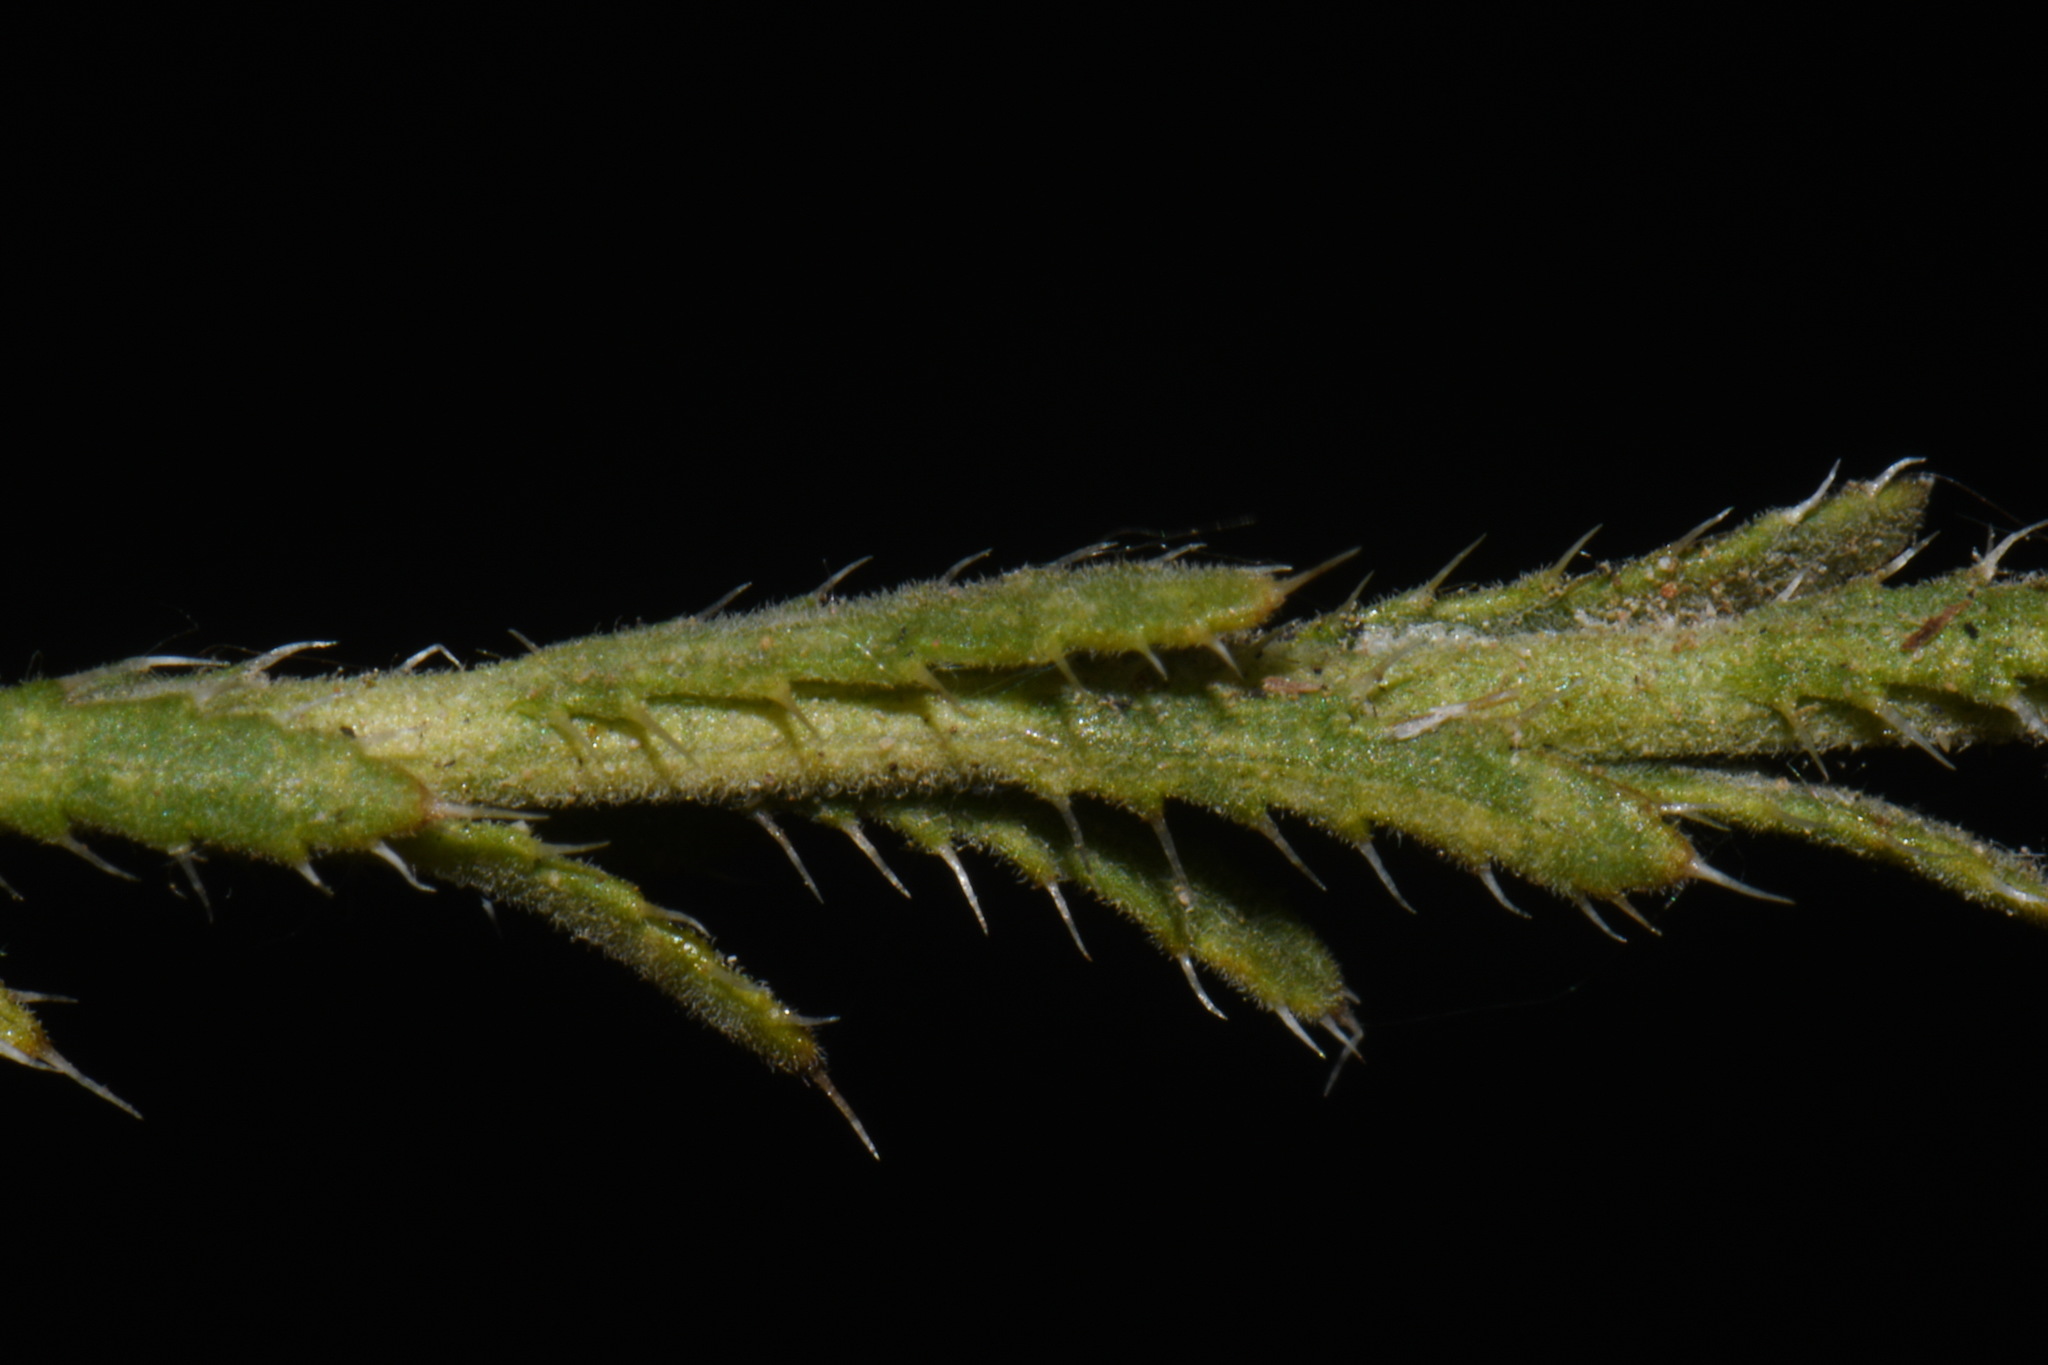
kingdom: Plantae
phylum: Tracheophyta
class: Magnoliopsida
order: Asterales
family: Asteraceae
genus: Xanthisma
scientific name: Xanthisma gracile
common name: Slender goldenweed
